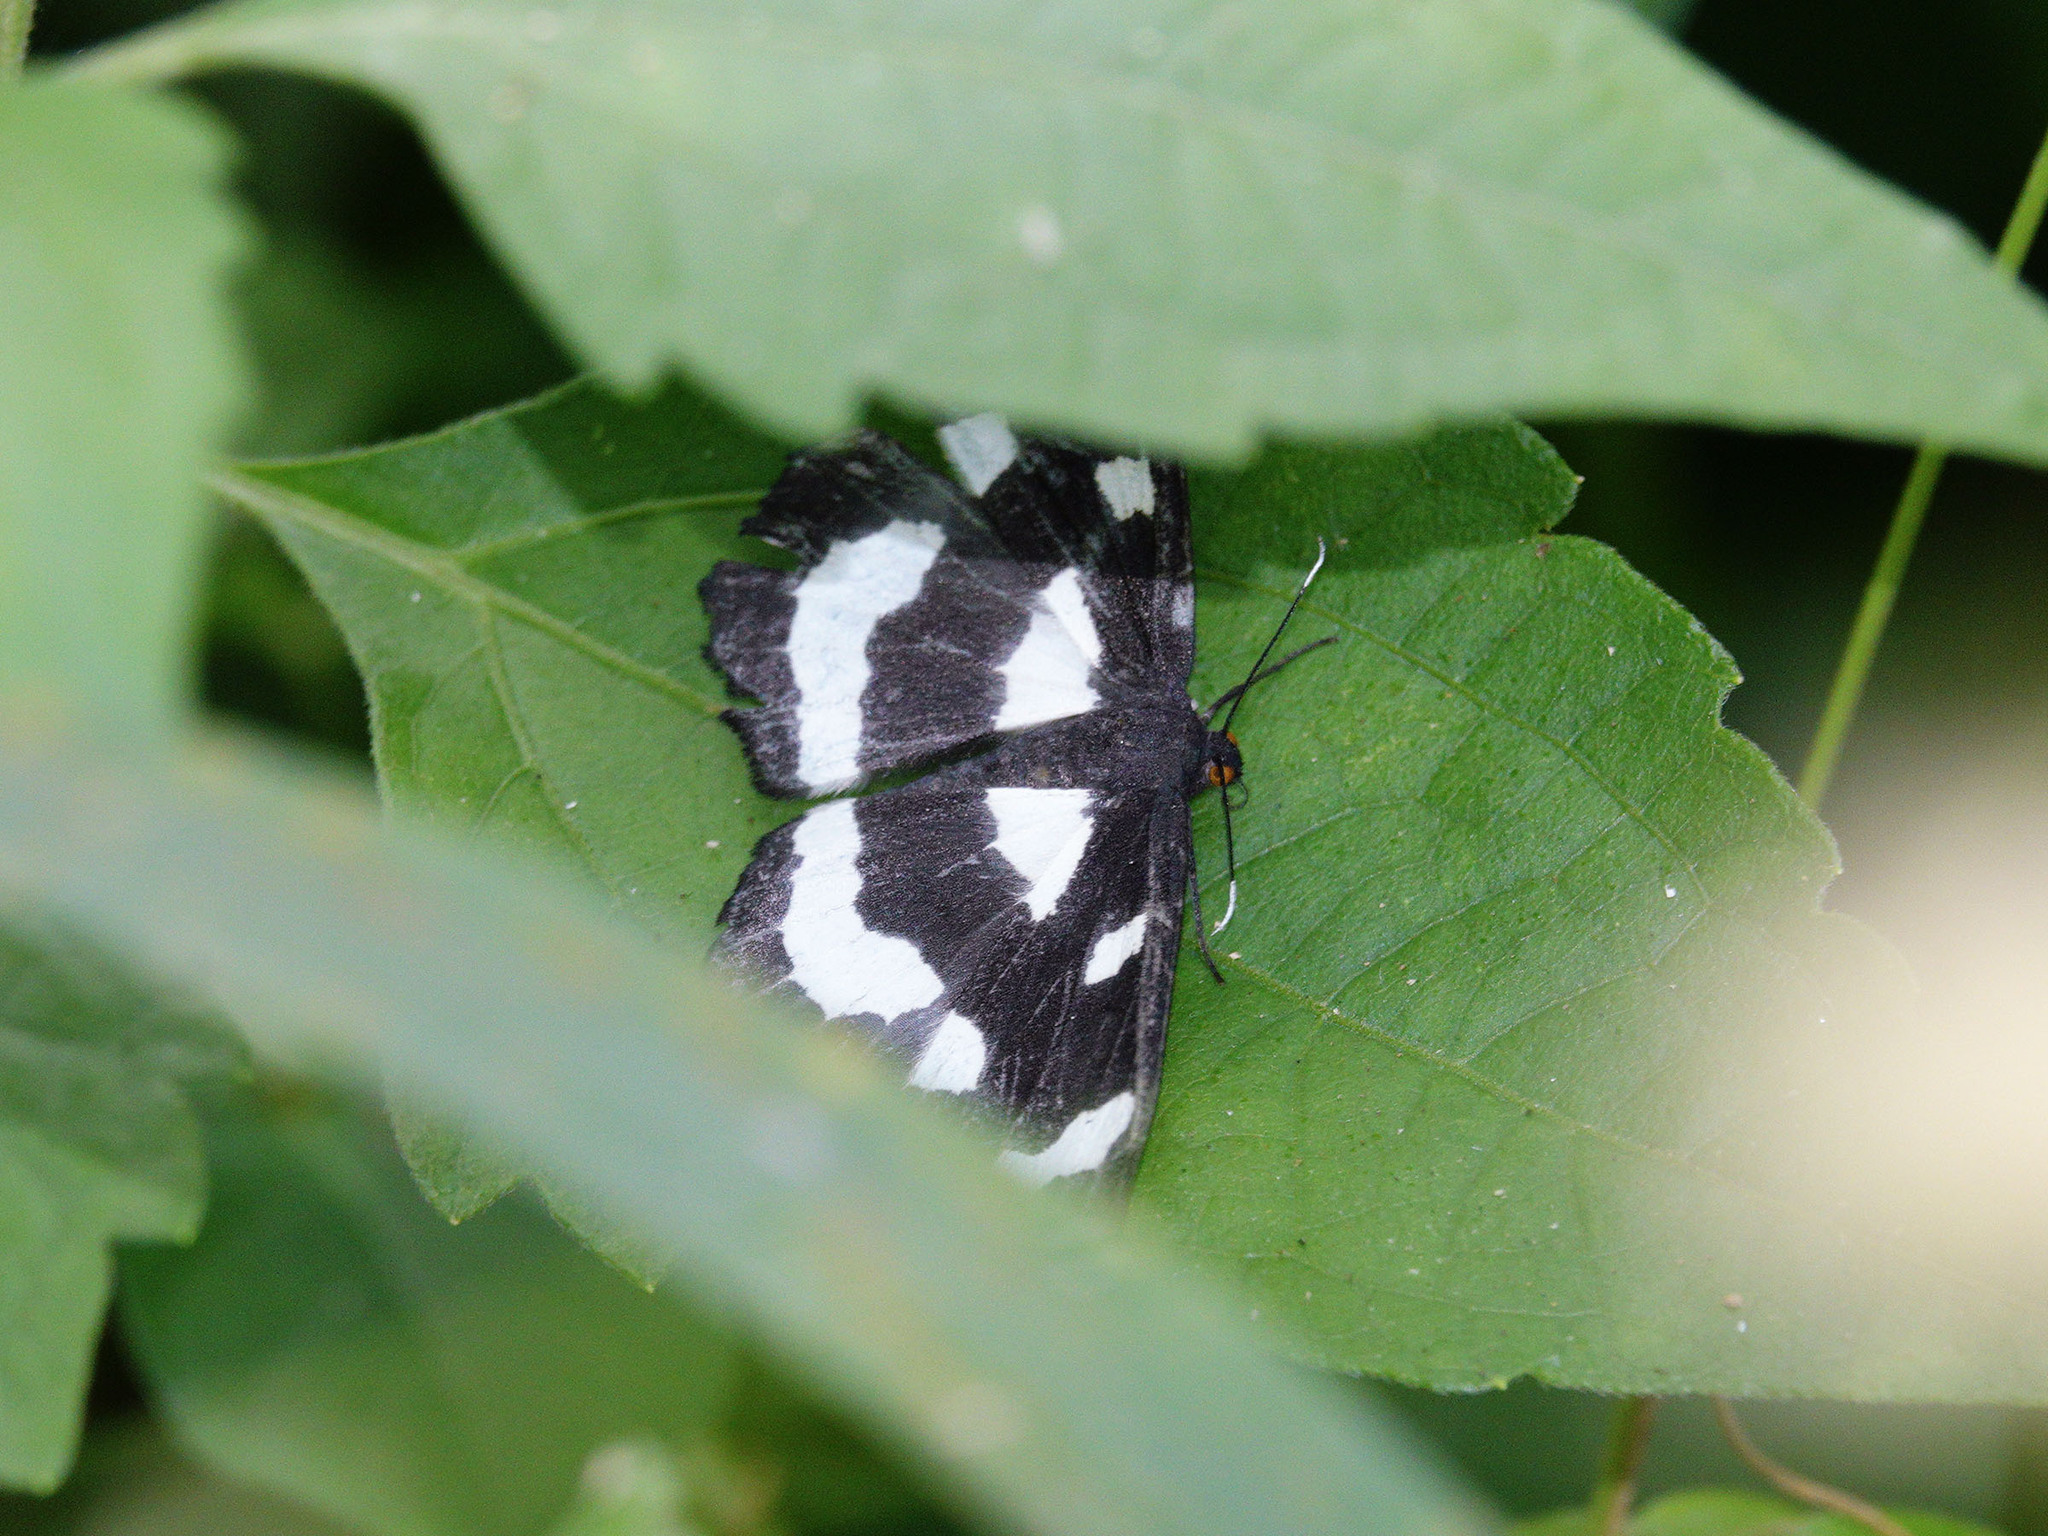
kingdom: Animalia
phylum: Arthropoda
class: Insecta
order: Lepidoptera
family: Geometridae
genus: Hyposidra
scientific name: Hyposidra leucomela
